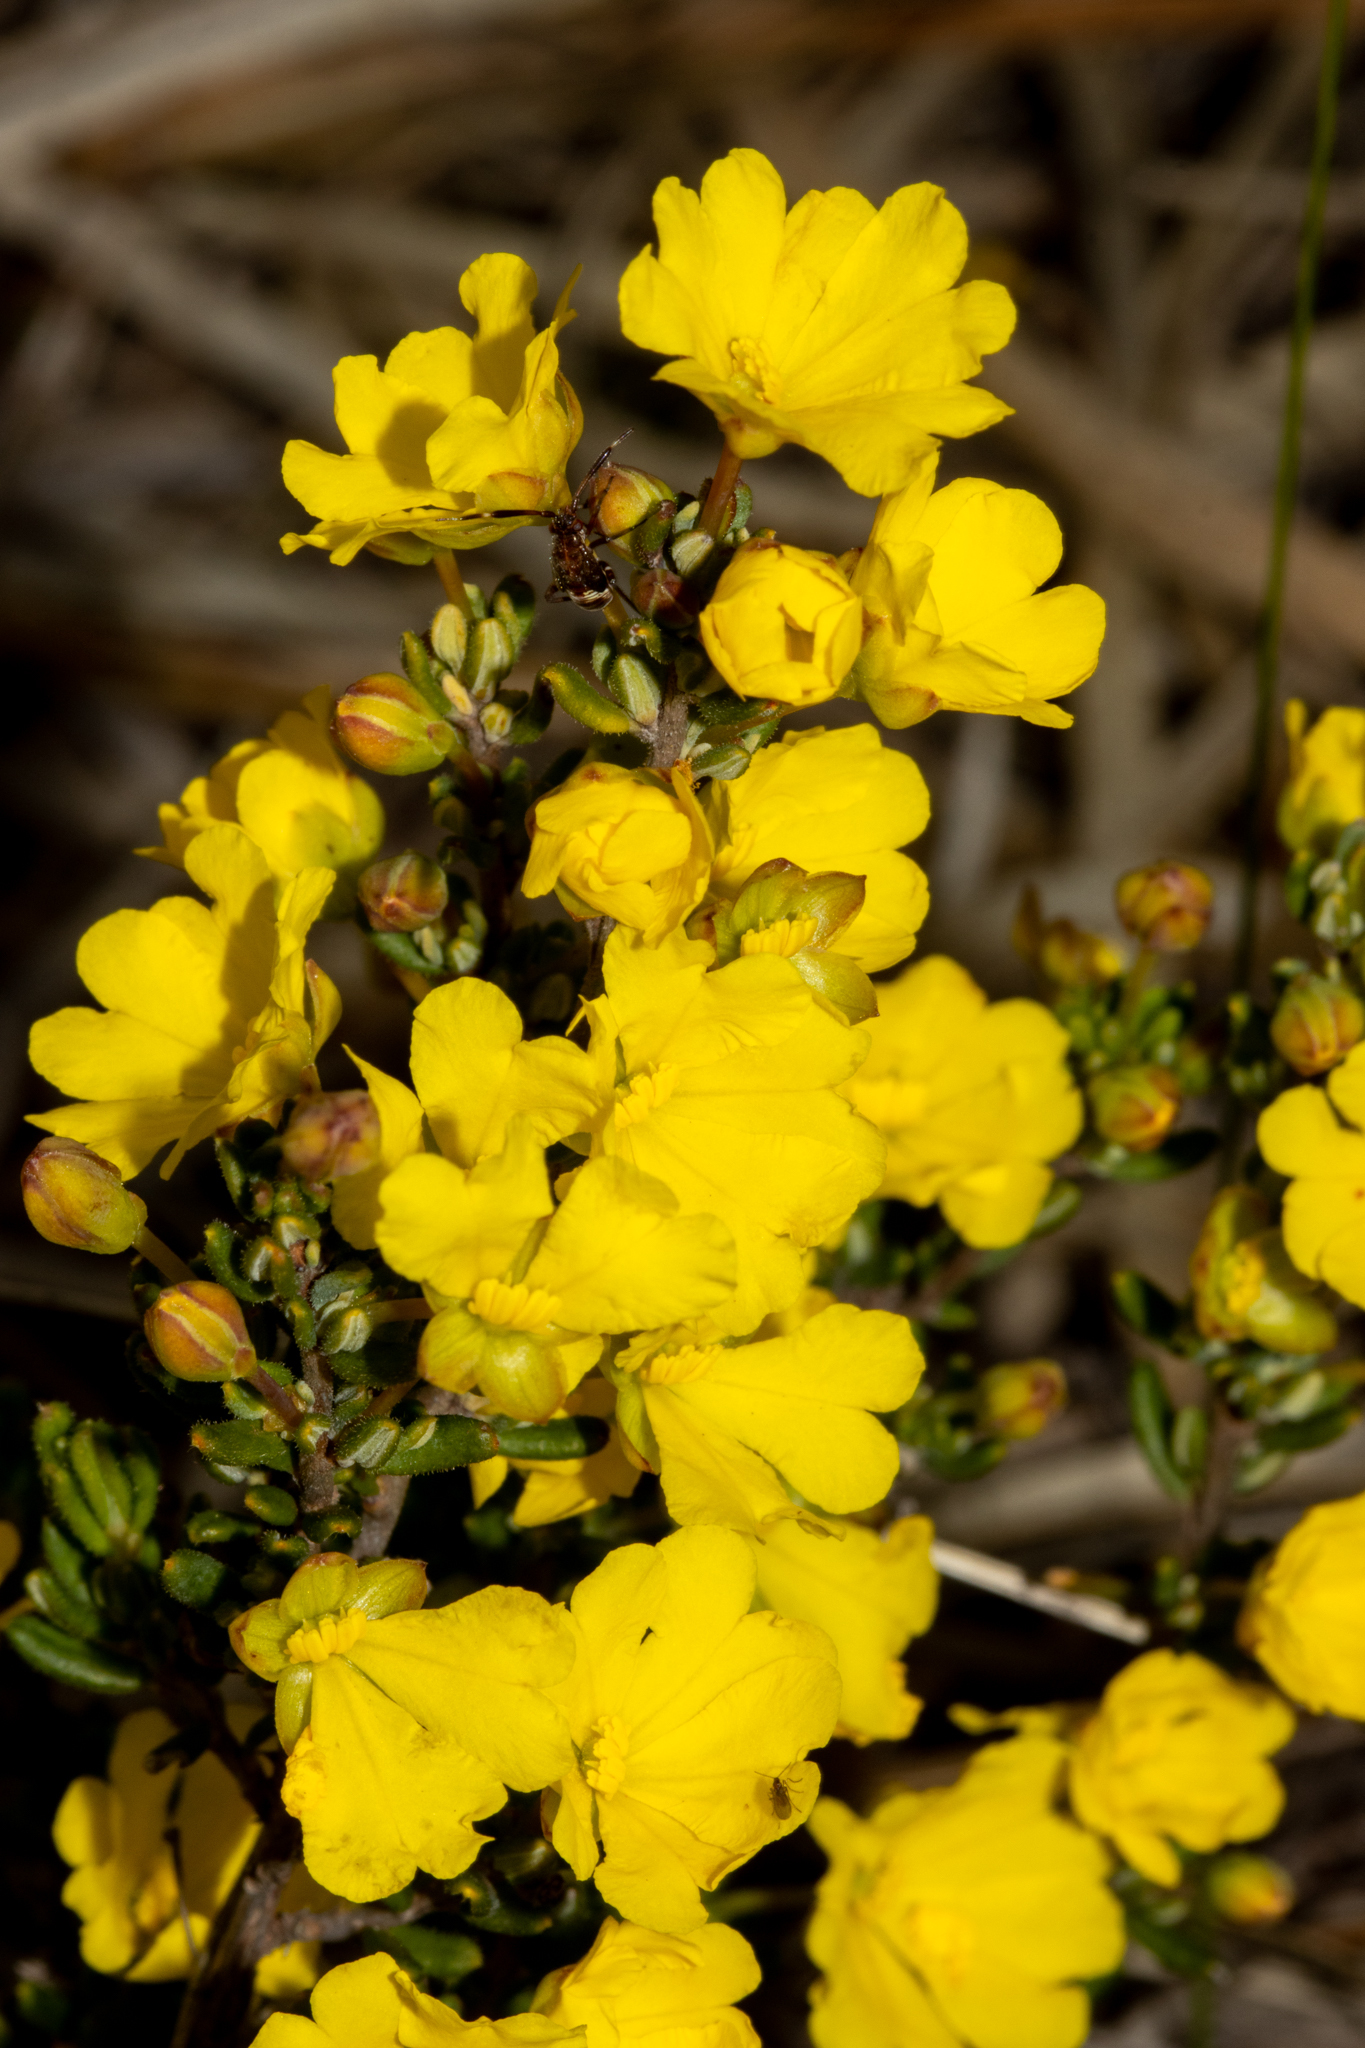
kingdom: Plantae
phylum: Tracheophyta
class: Magnoliopsida
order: Dilleniales
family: Dilleniaceae
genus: Hibbertia
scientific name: Hibbertia avonensis
